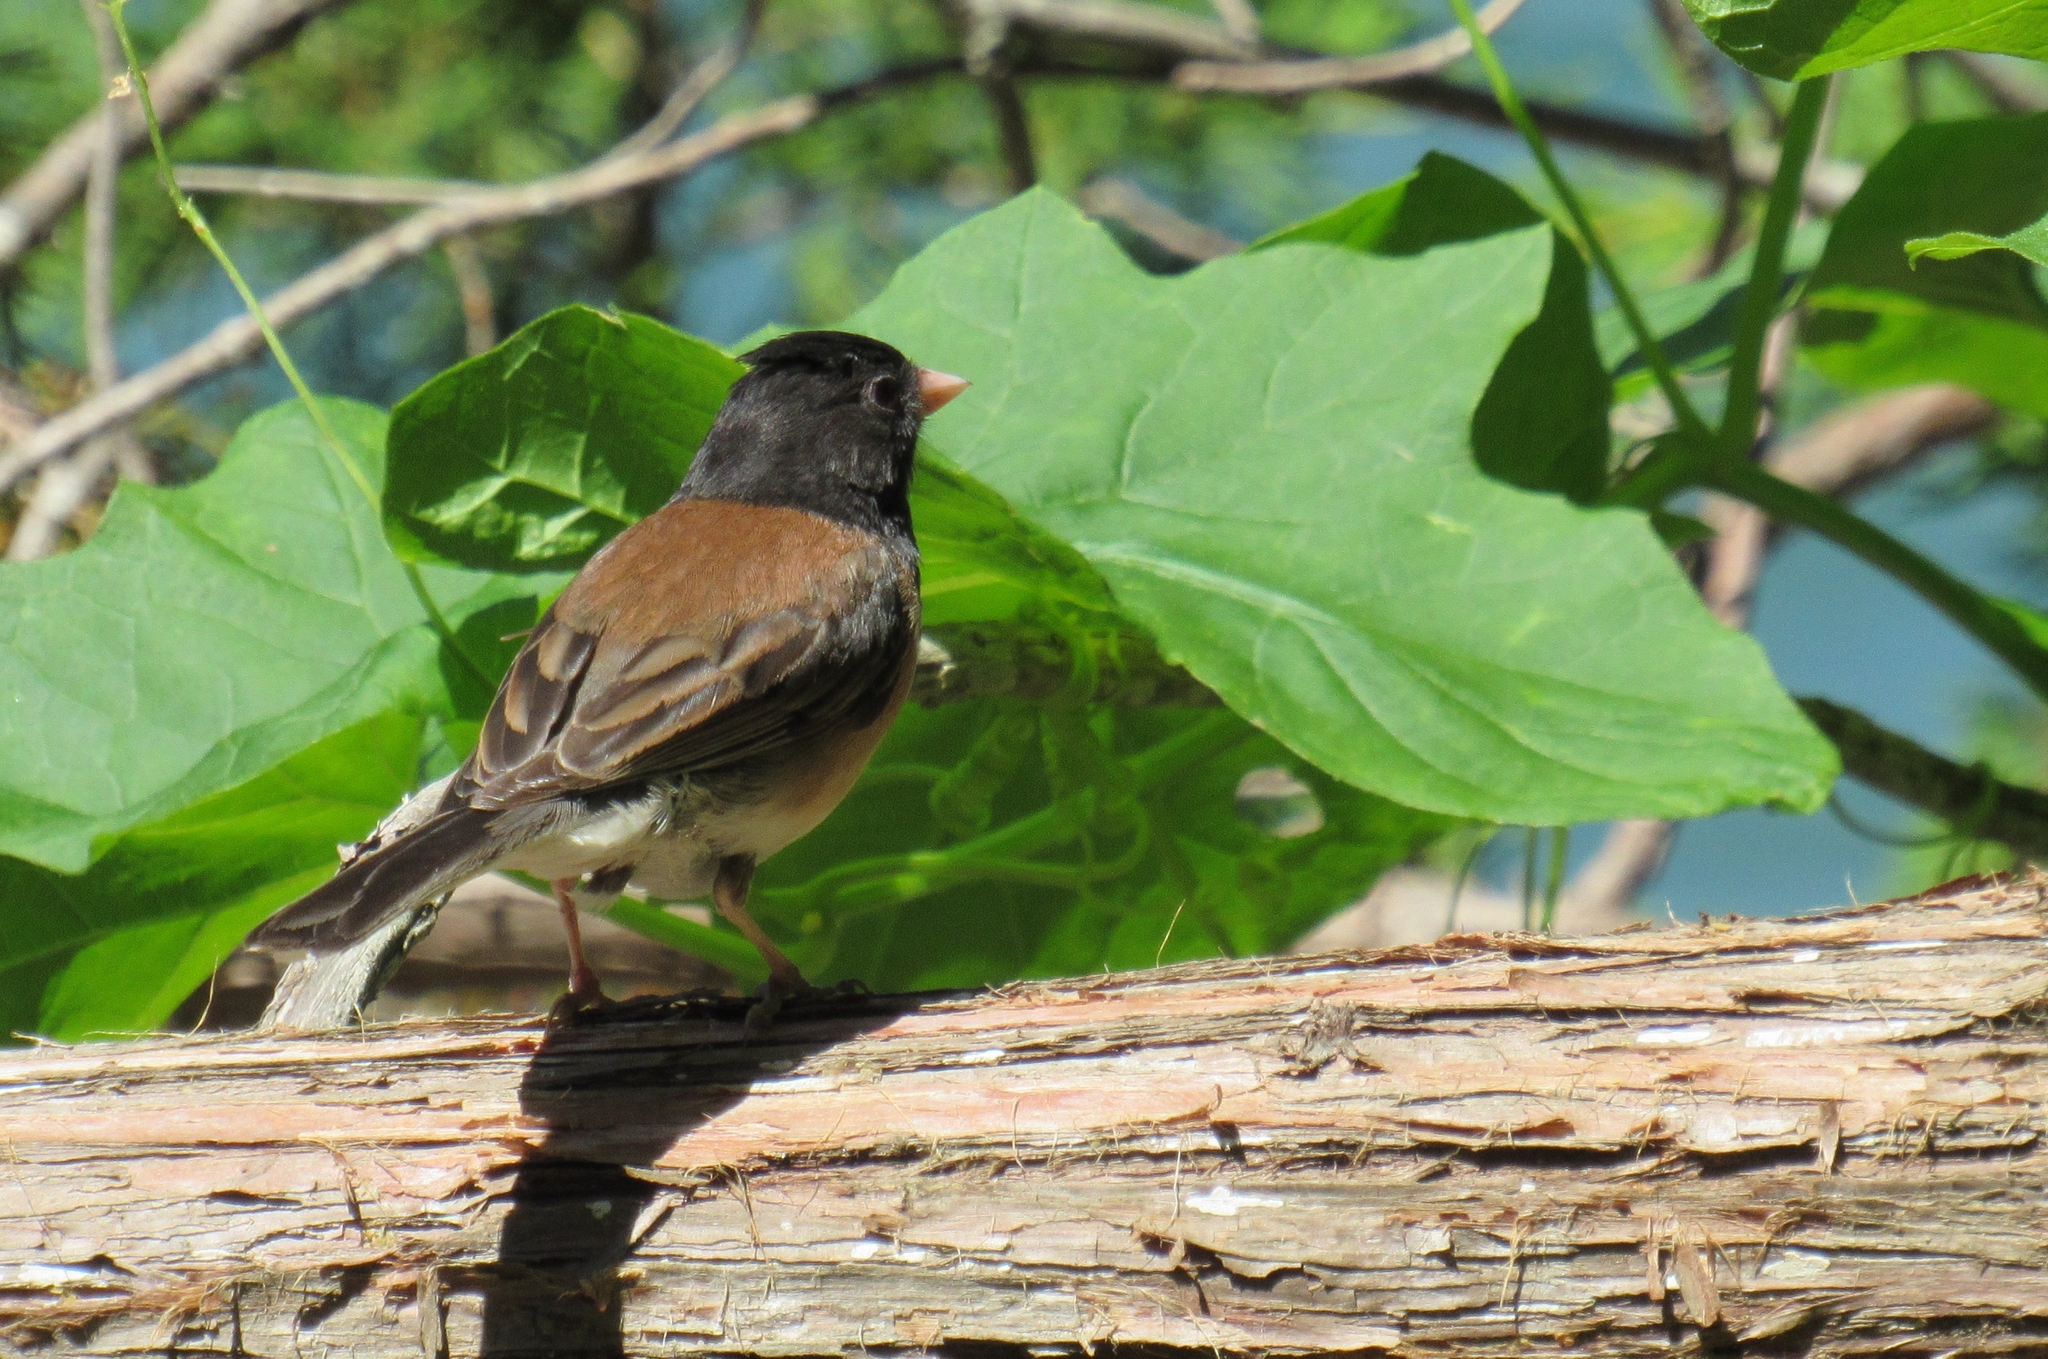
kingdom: Animalia
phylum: Chordata
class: Aves
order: Passeriformes
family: Passerellidae
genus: Junco
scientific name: Junco hyemalis
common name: Dark-eyed junco
